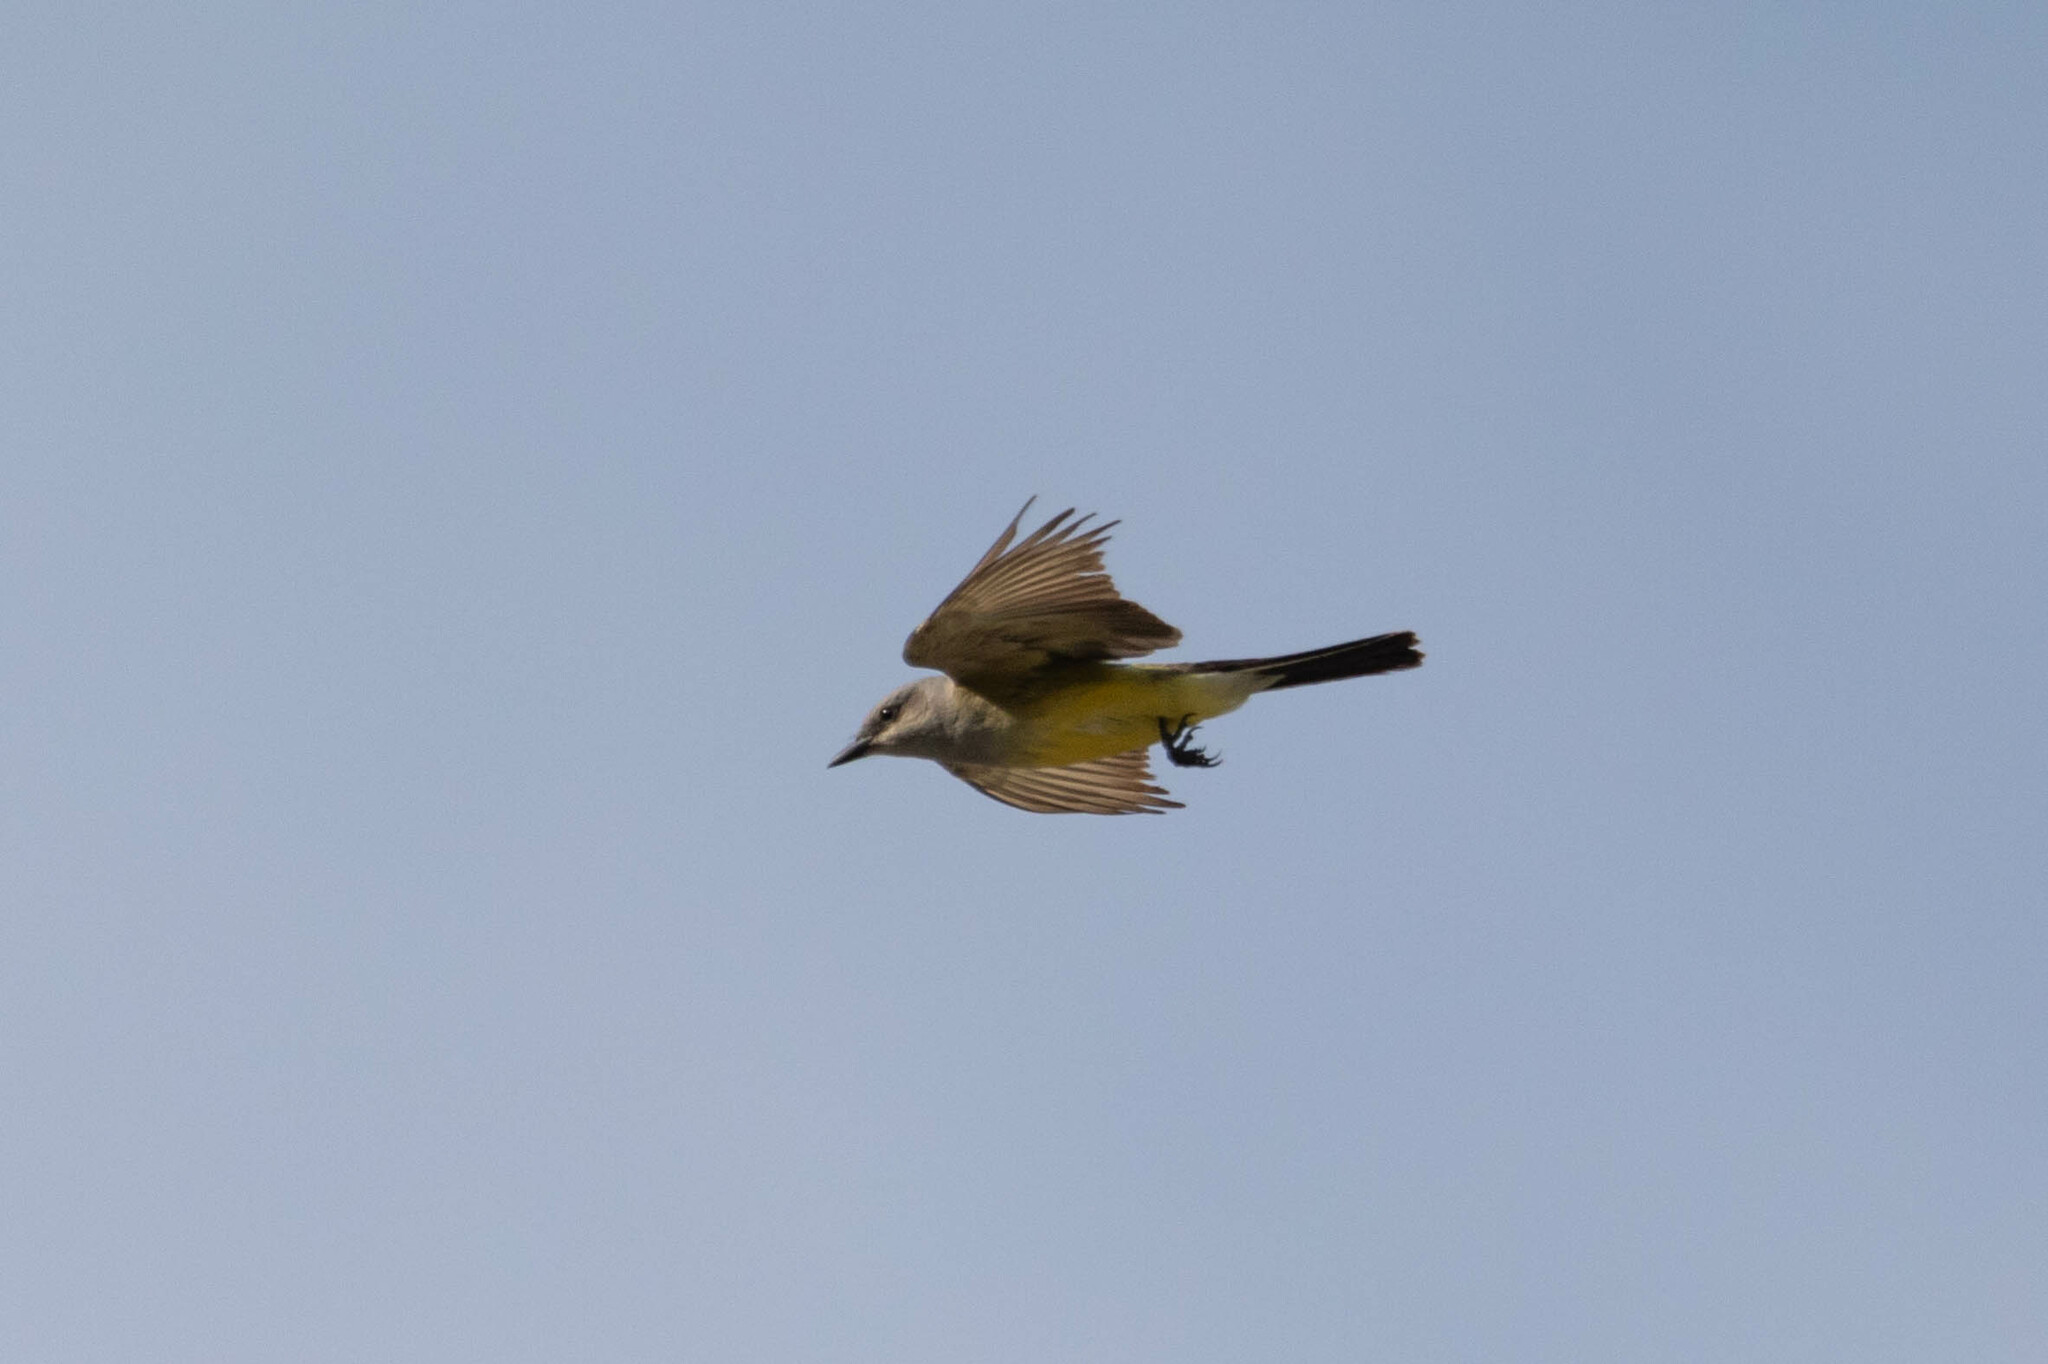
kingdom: Animalia
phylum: Chordata
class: Aves
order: Passeriformes
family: Tyrannidae
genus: Tyrannus
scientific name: Tyrannus verticalis
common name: Western kingbird
